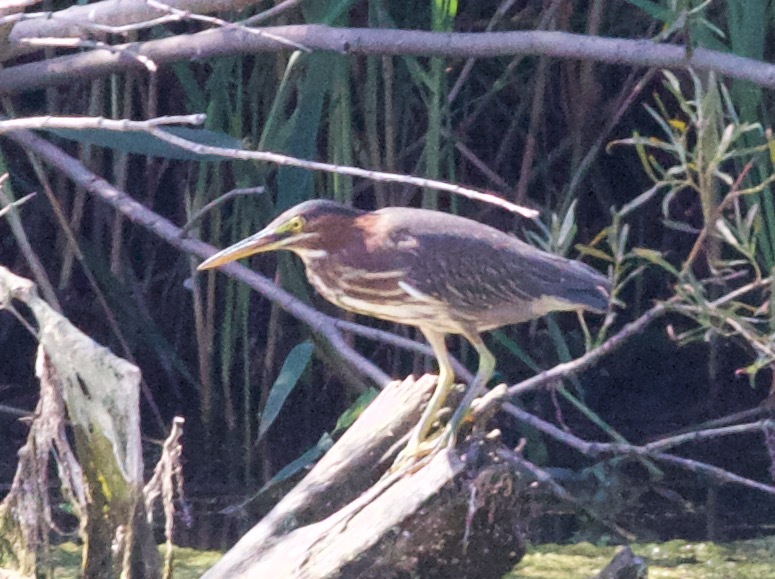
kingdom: Animalia
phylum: Chordata
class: Aves
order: Pelecaniformes
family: Ardeidae
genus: Butorides
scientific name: Butorides virescens
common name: Green heron
